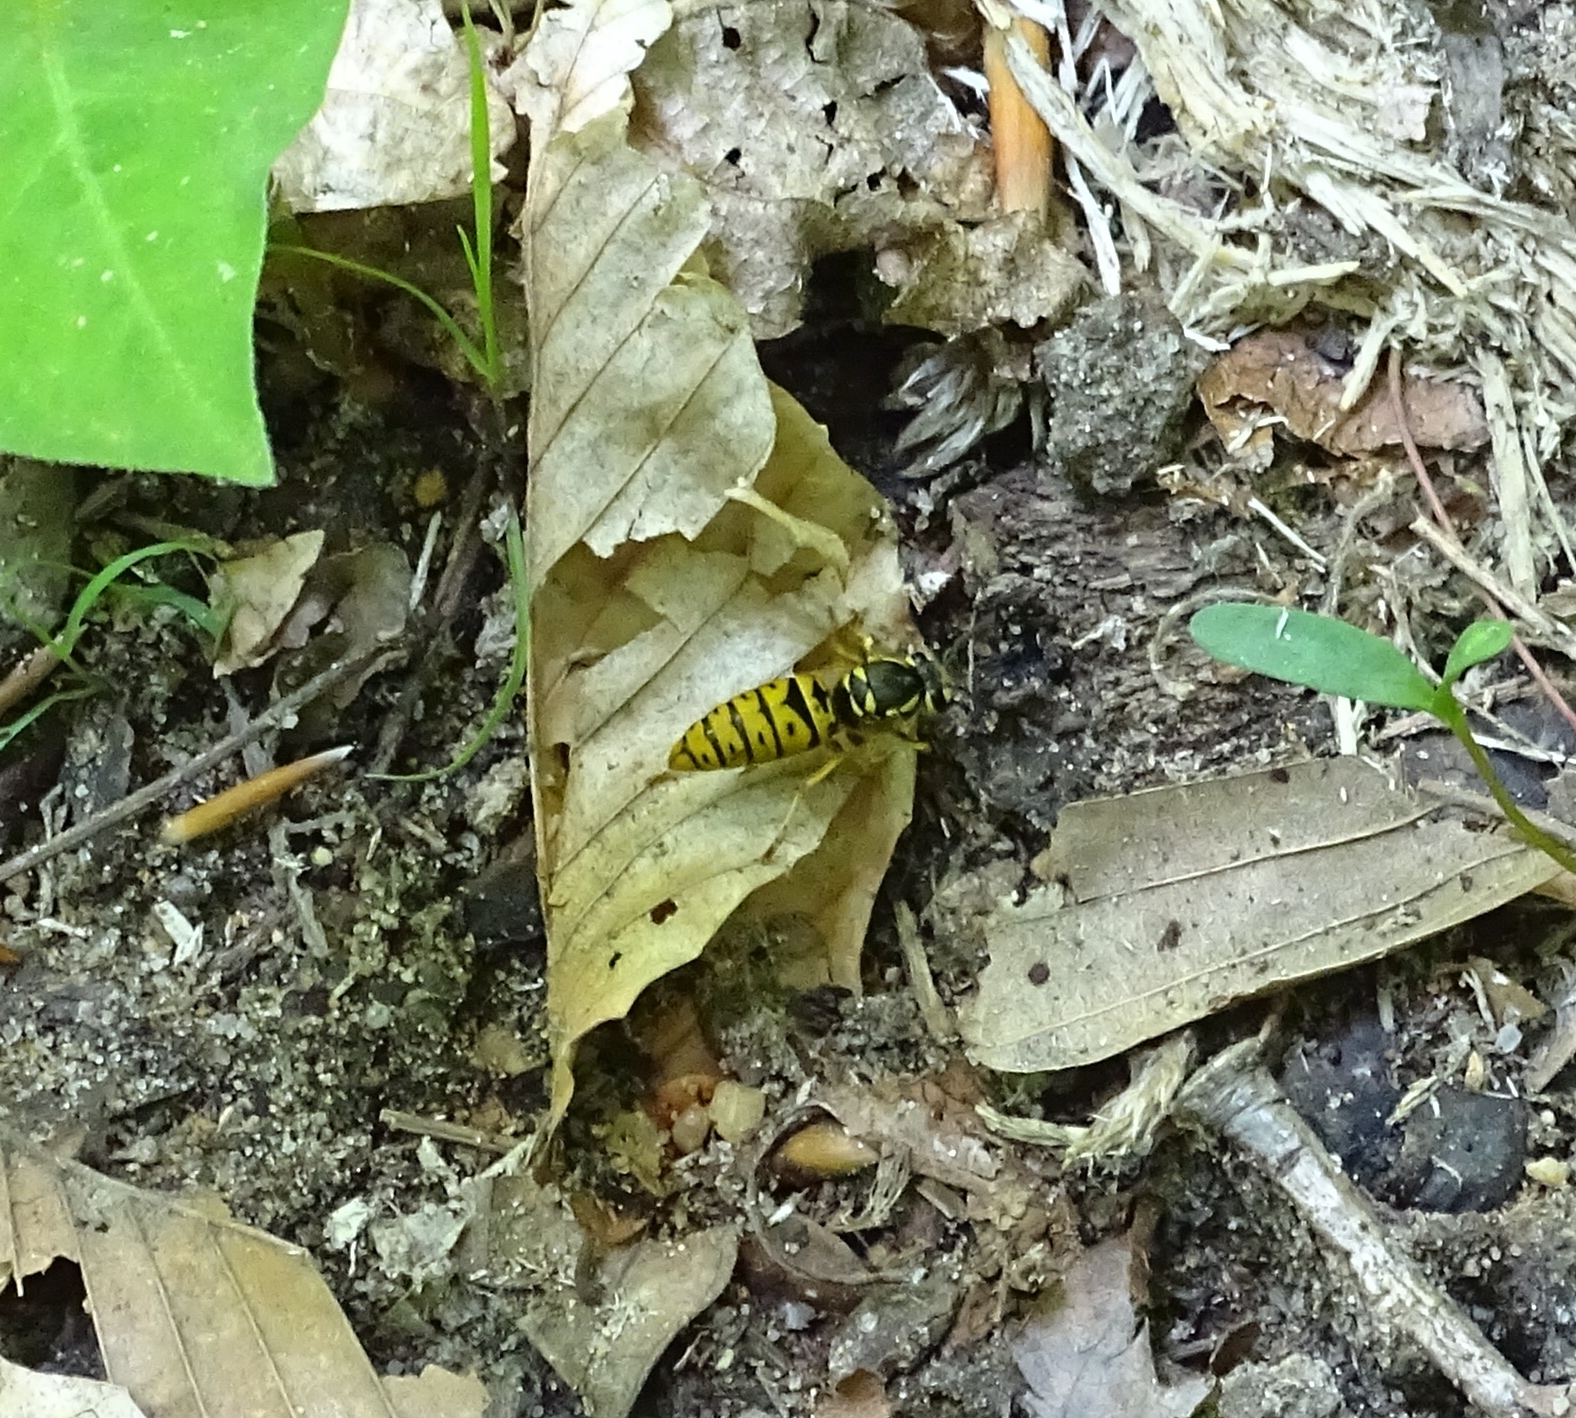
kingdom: Animalia
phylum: Arthropoda
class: Insecta
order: Hymenoptera
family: Vespidae
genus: Vespula
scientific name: Vespula maculifrons
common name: Eastern yellowjacket
